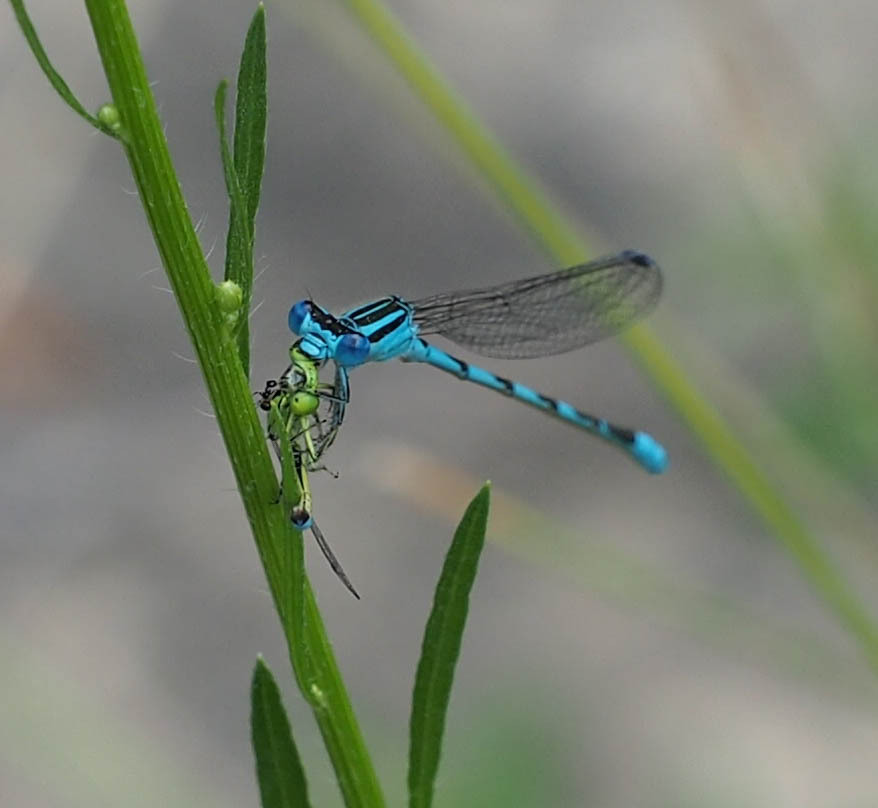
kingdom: Animalia
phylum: Arthropoda
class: Insecta
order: Odonata
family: Coenagrionidae
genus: Enallagma
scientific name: Enallagma durum
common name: Big bluet
